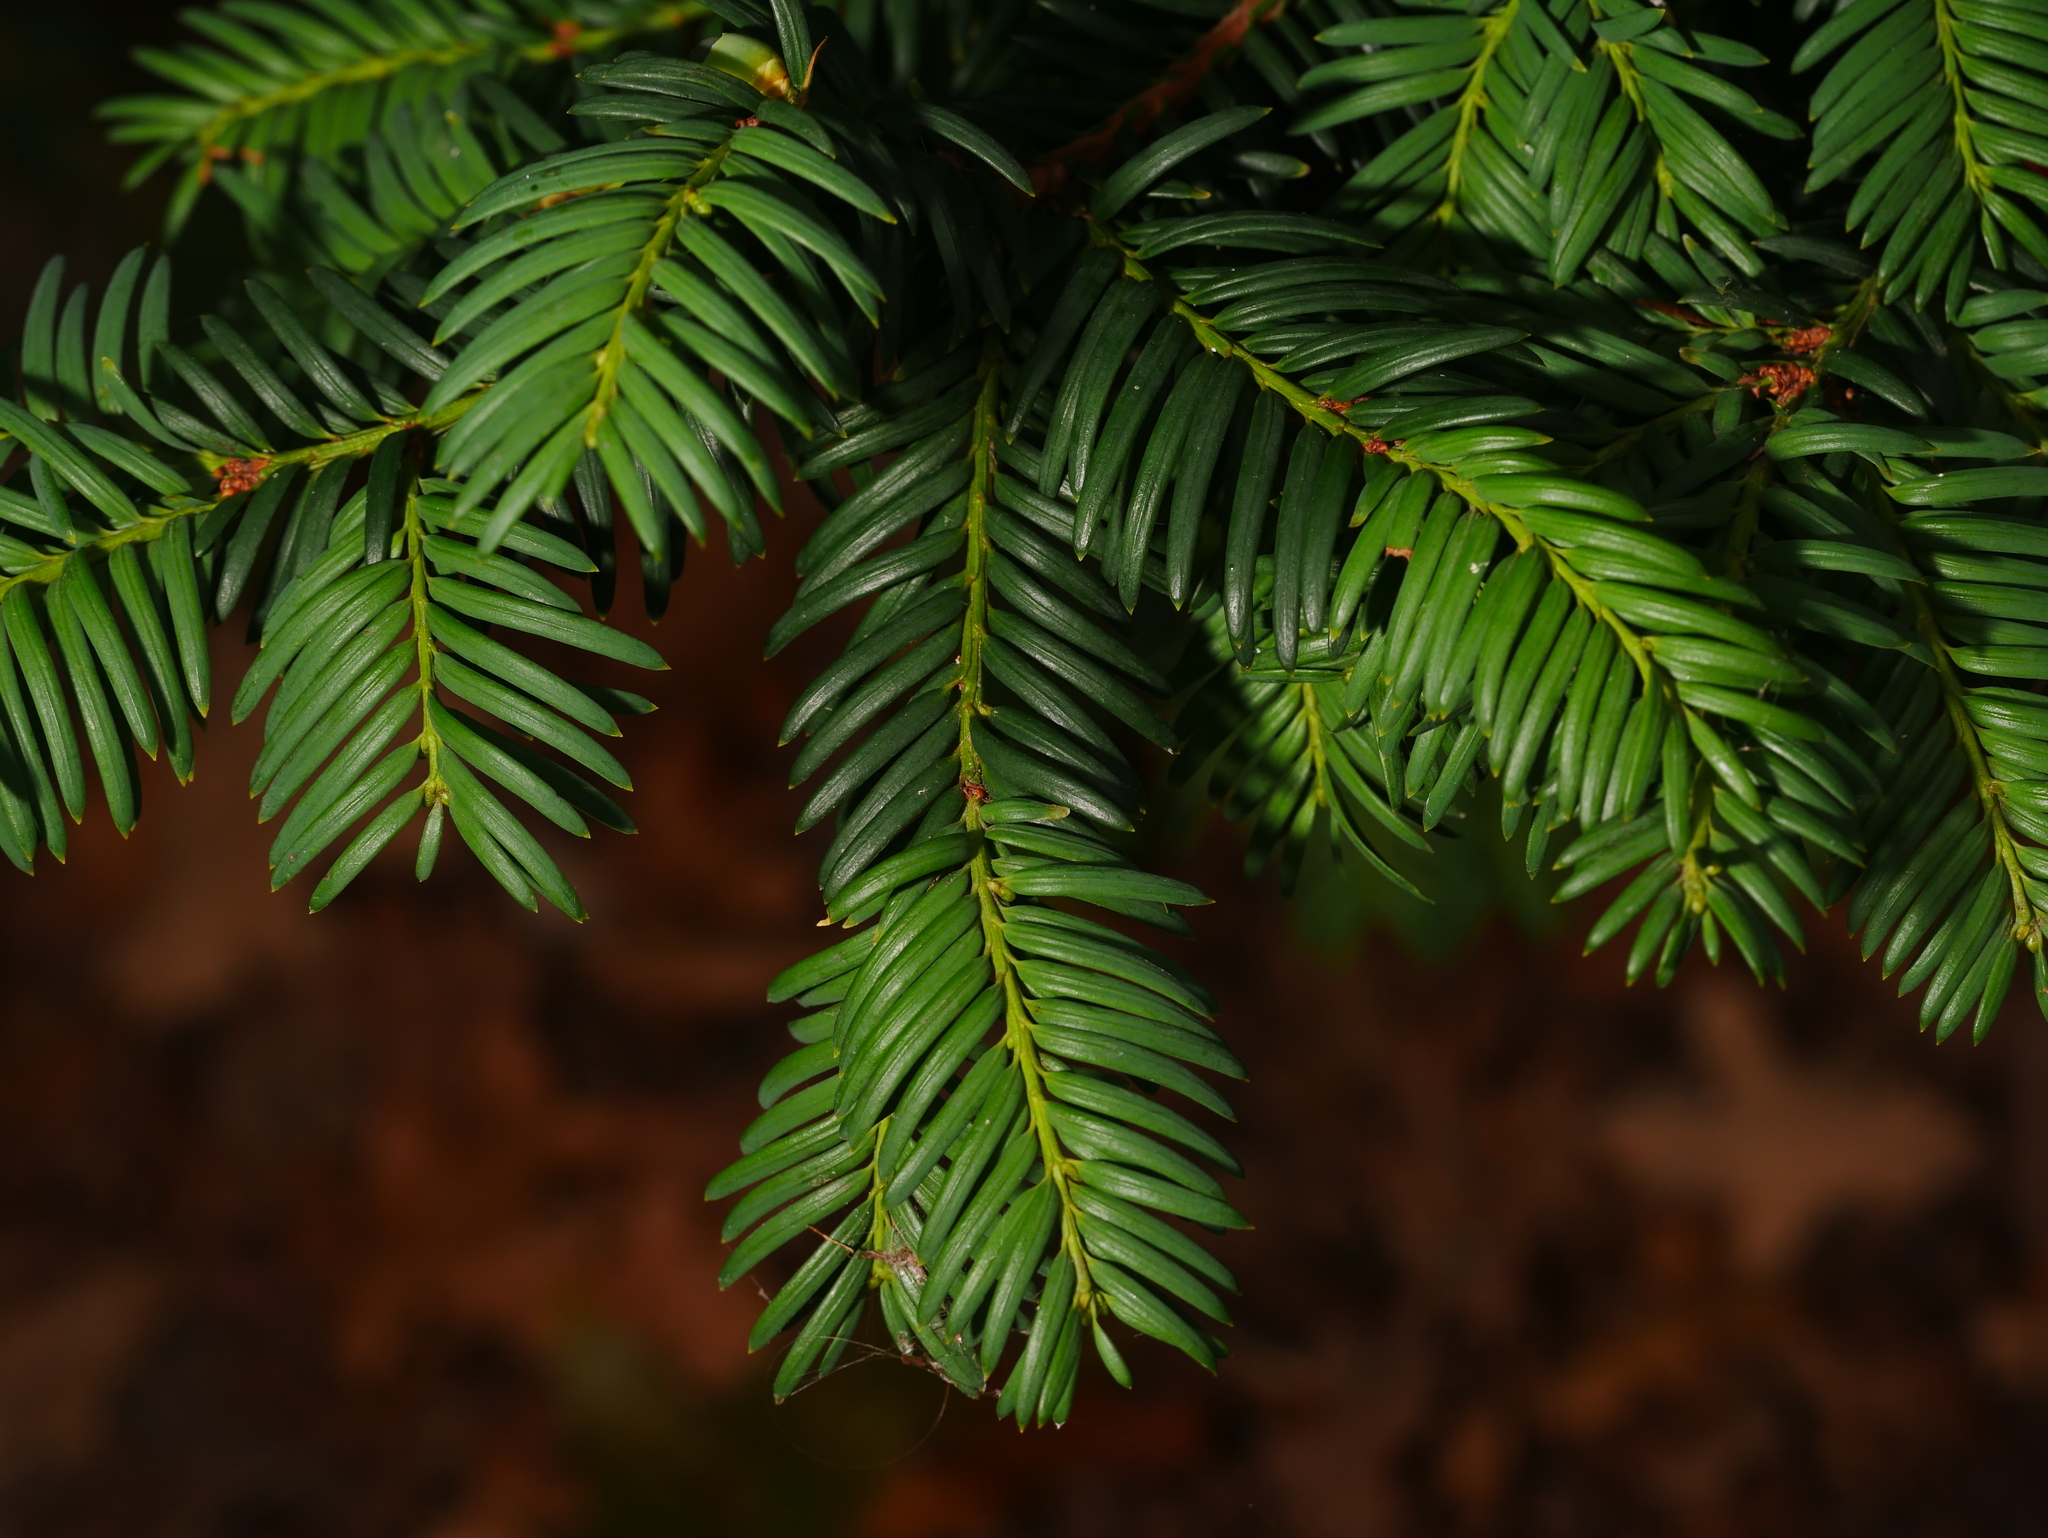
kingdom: Plantae
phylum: Tracheophyta
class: Pinopsida
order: Pinales
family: Taxaceae
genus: Taxus
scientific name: Taxus baccata
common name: Yew
